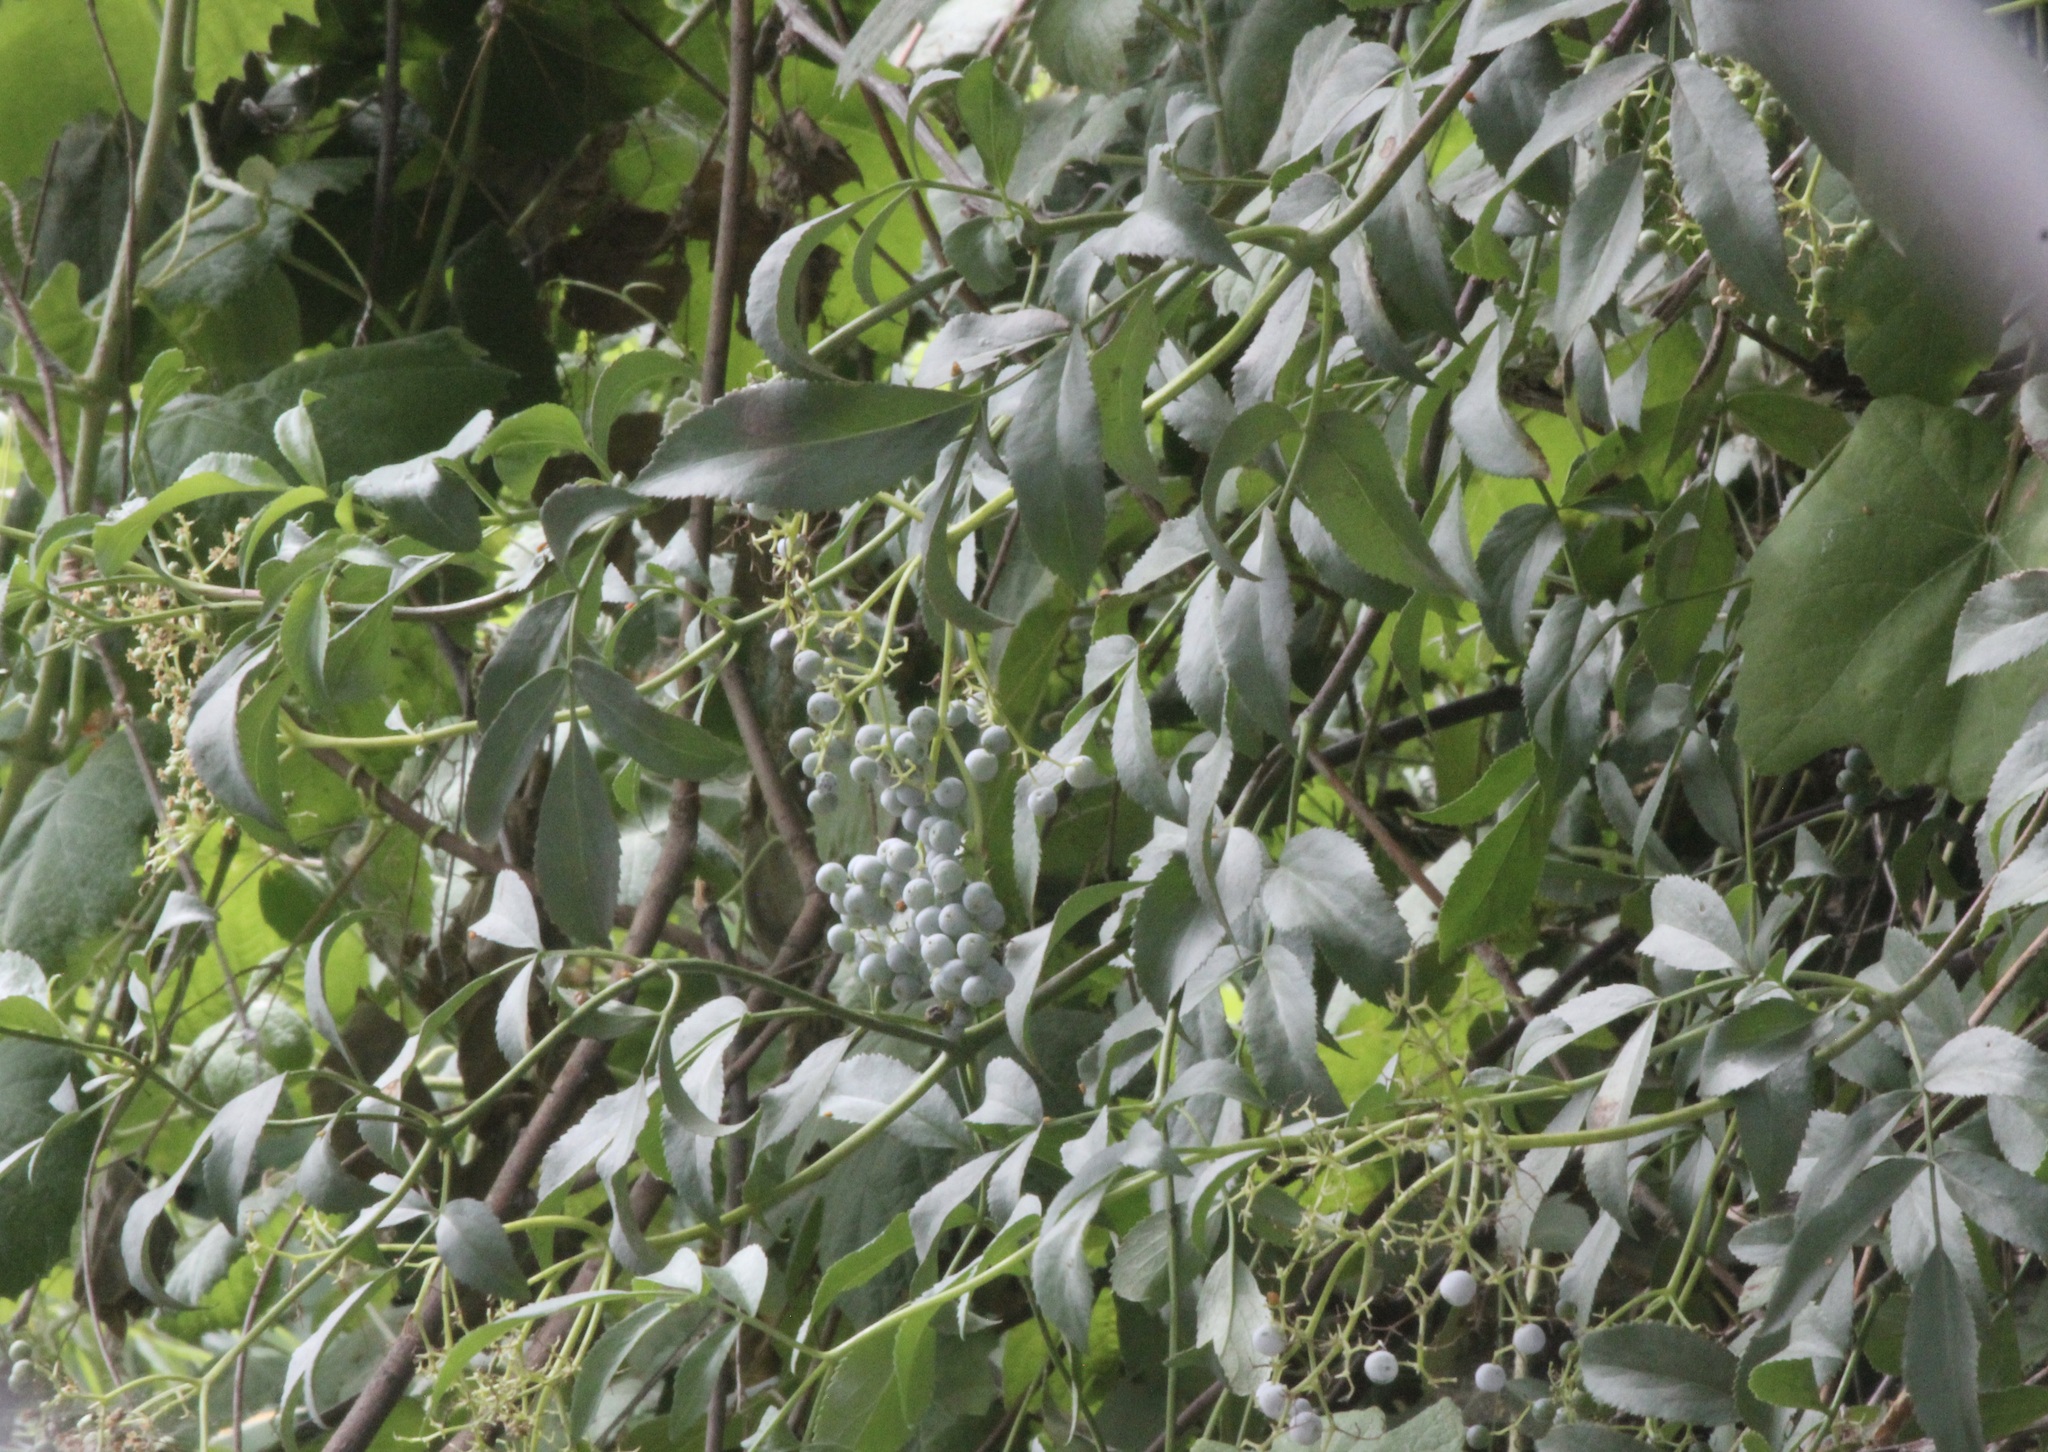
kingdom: Plantae
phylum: Tracheophyta
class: Magnoliopsida
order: Dipsacales
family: Viburnaceae
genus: Sambucus
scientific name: Sambucus cerulea
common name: Blue elder
